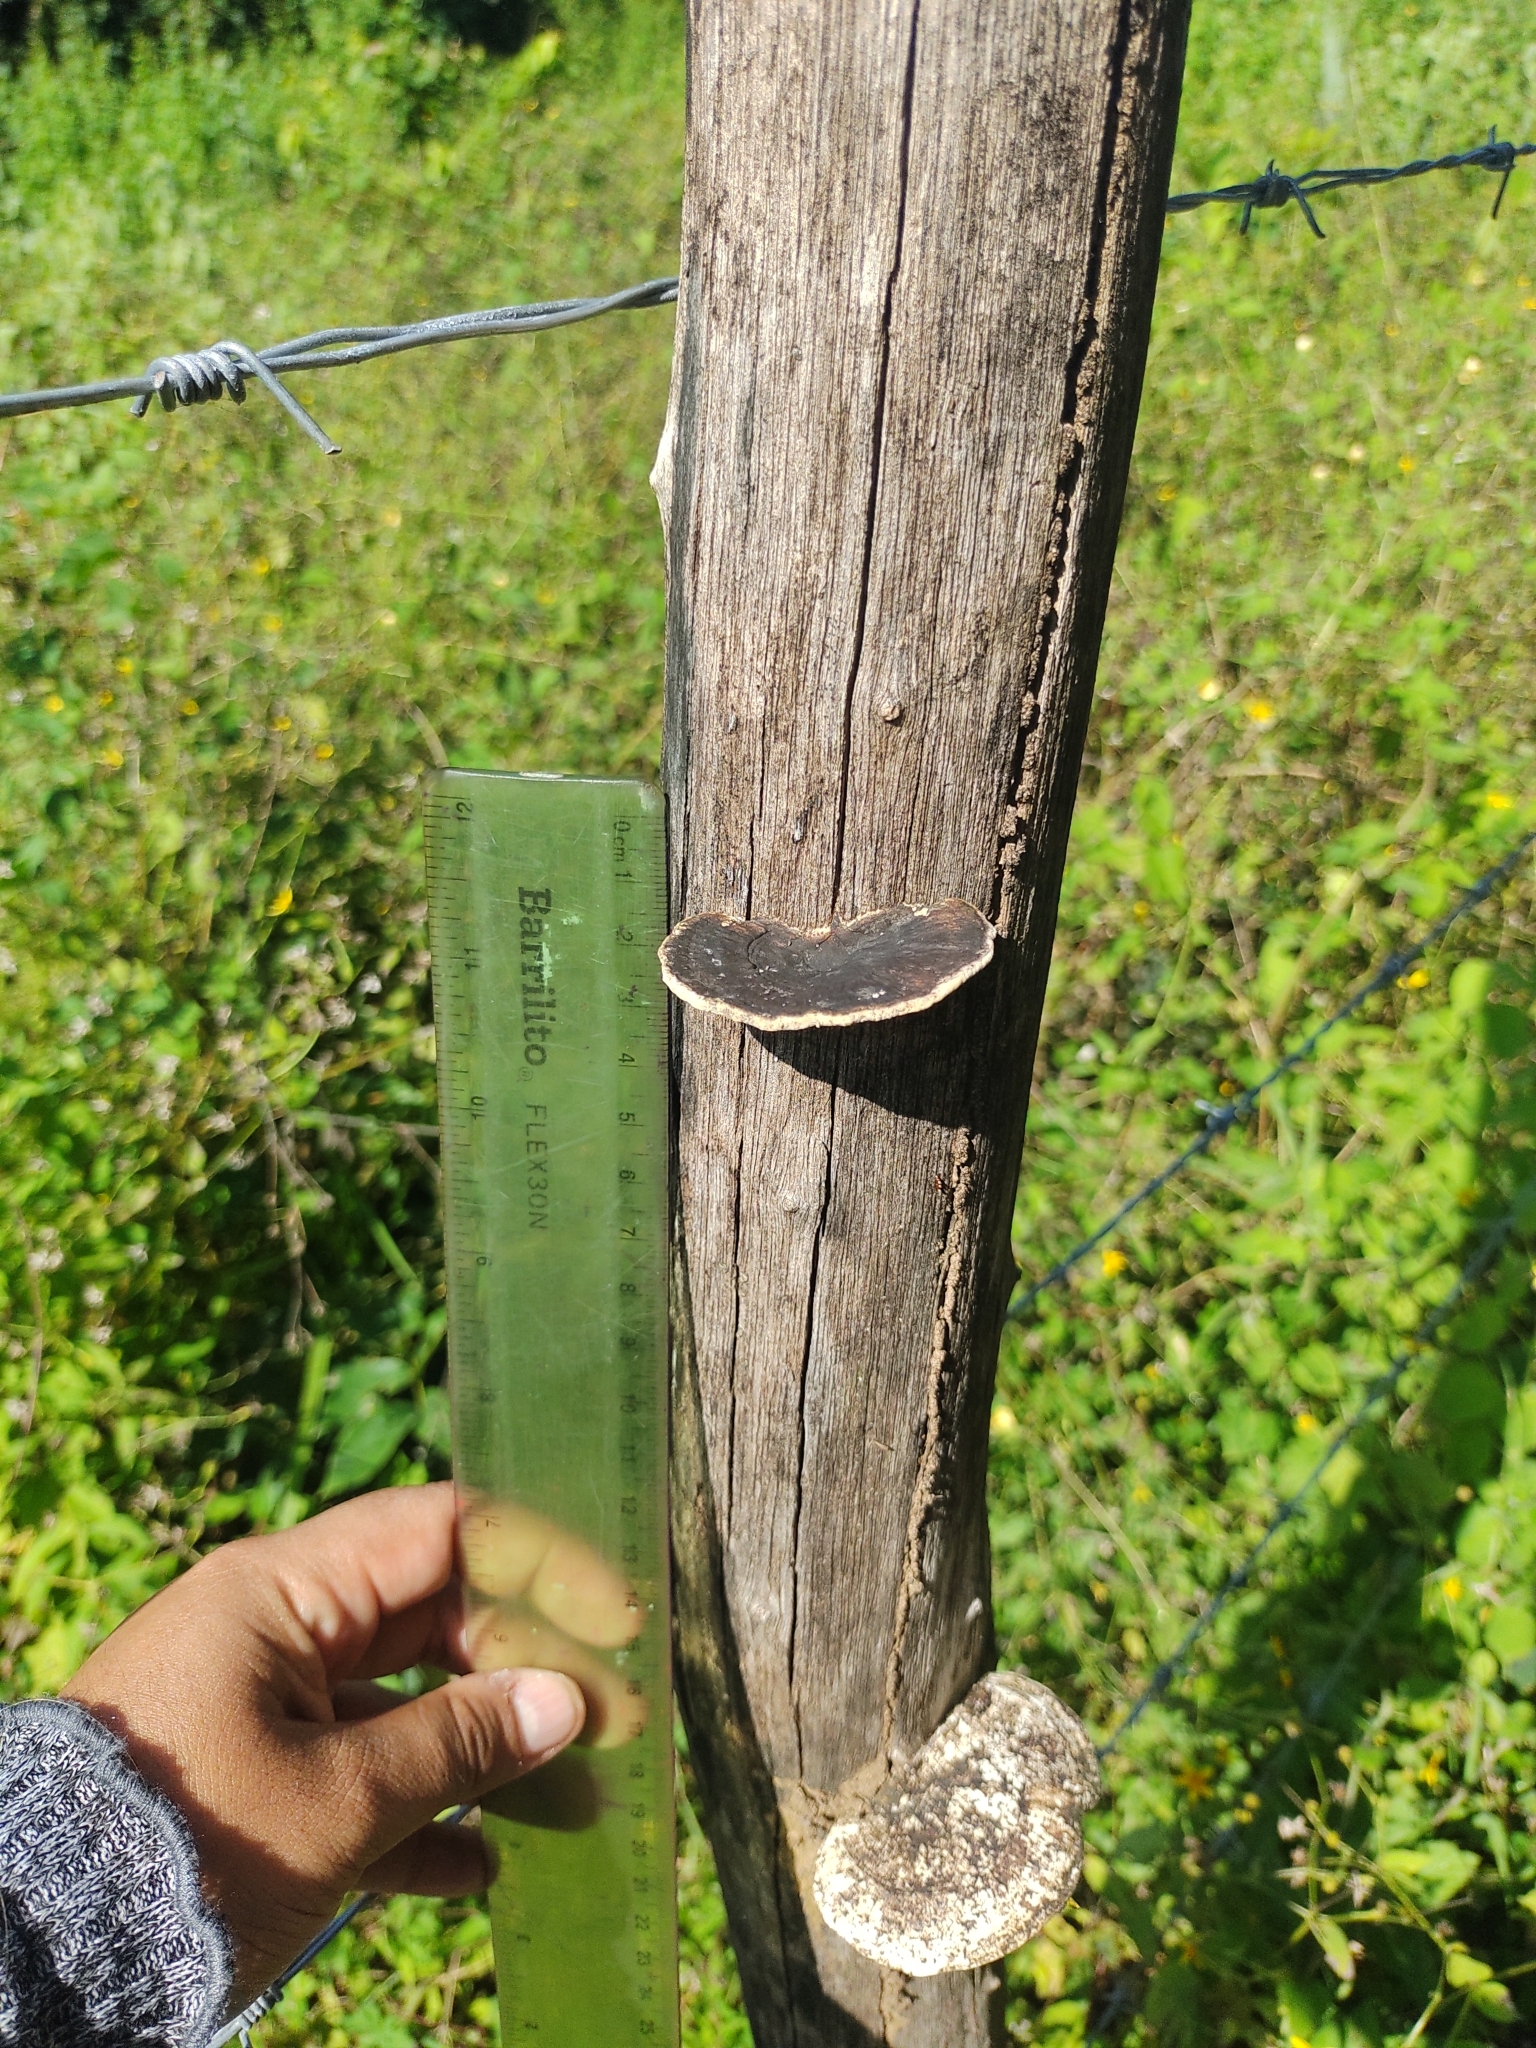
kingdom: Fungi
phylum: Basidiomycota
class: Agaricomycetes
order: Polyporales
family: Cerrenaceae
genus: Cerrena
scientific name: Cerrena hydnoides
